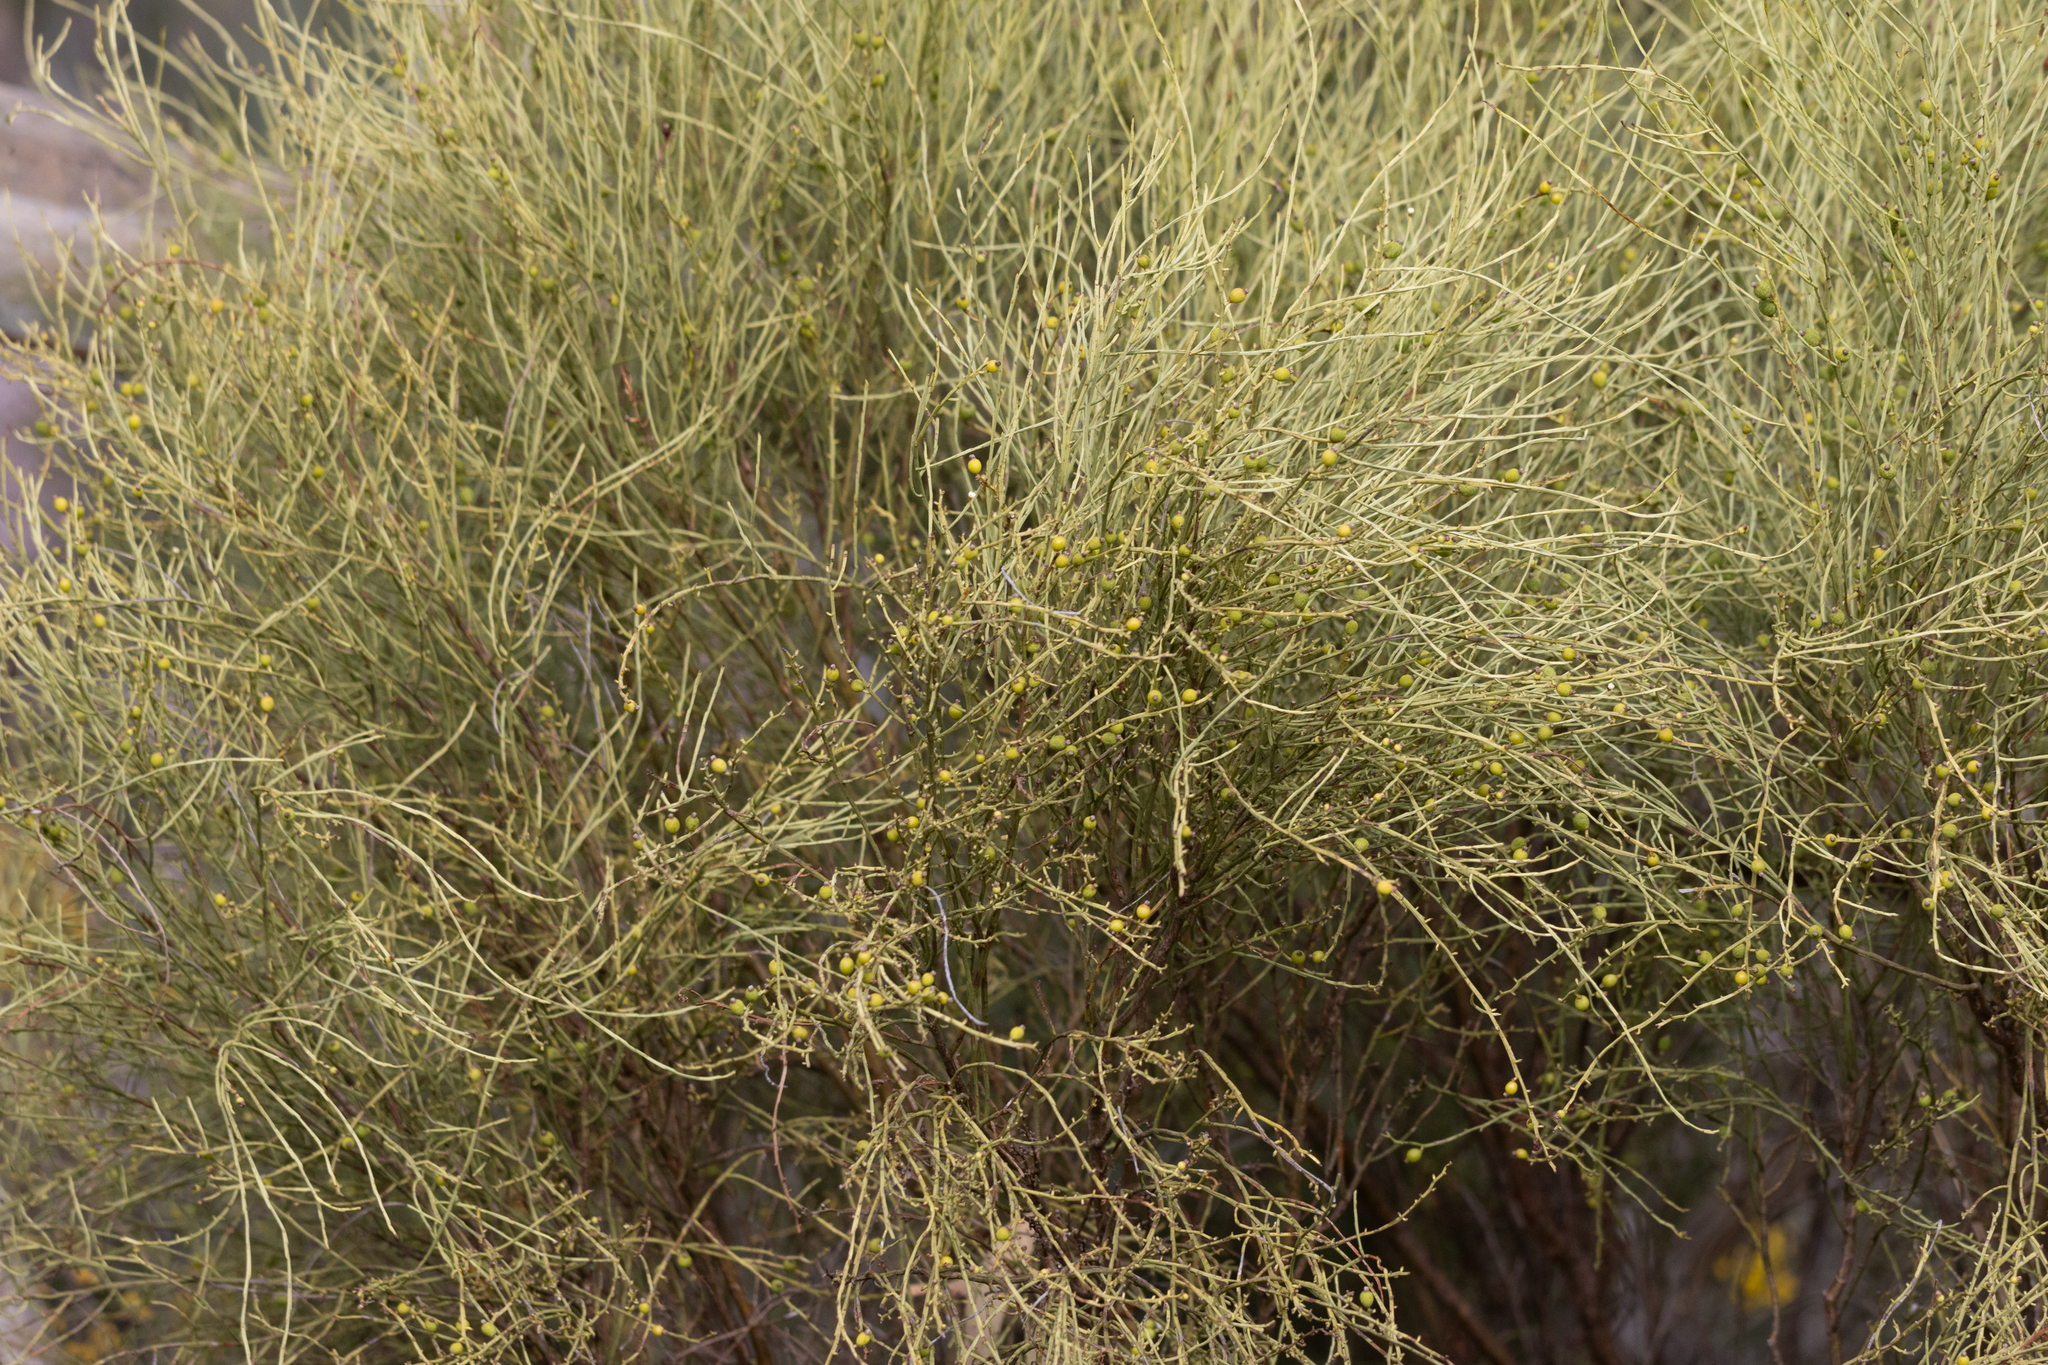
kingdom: Plantae
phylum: Tracheophyta
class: Magnoliopsida
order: Santalales
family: Amphorogynaceae
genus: Choretrum
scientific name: Choretrum glomeratum
